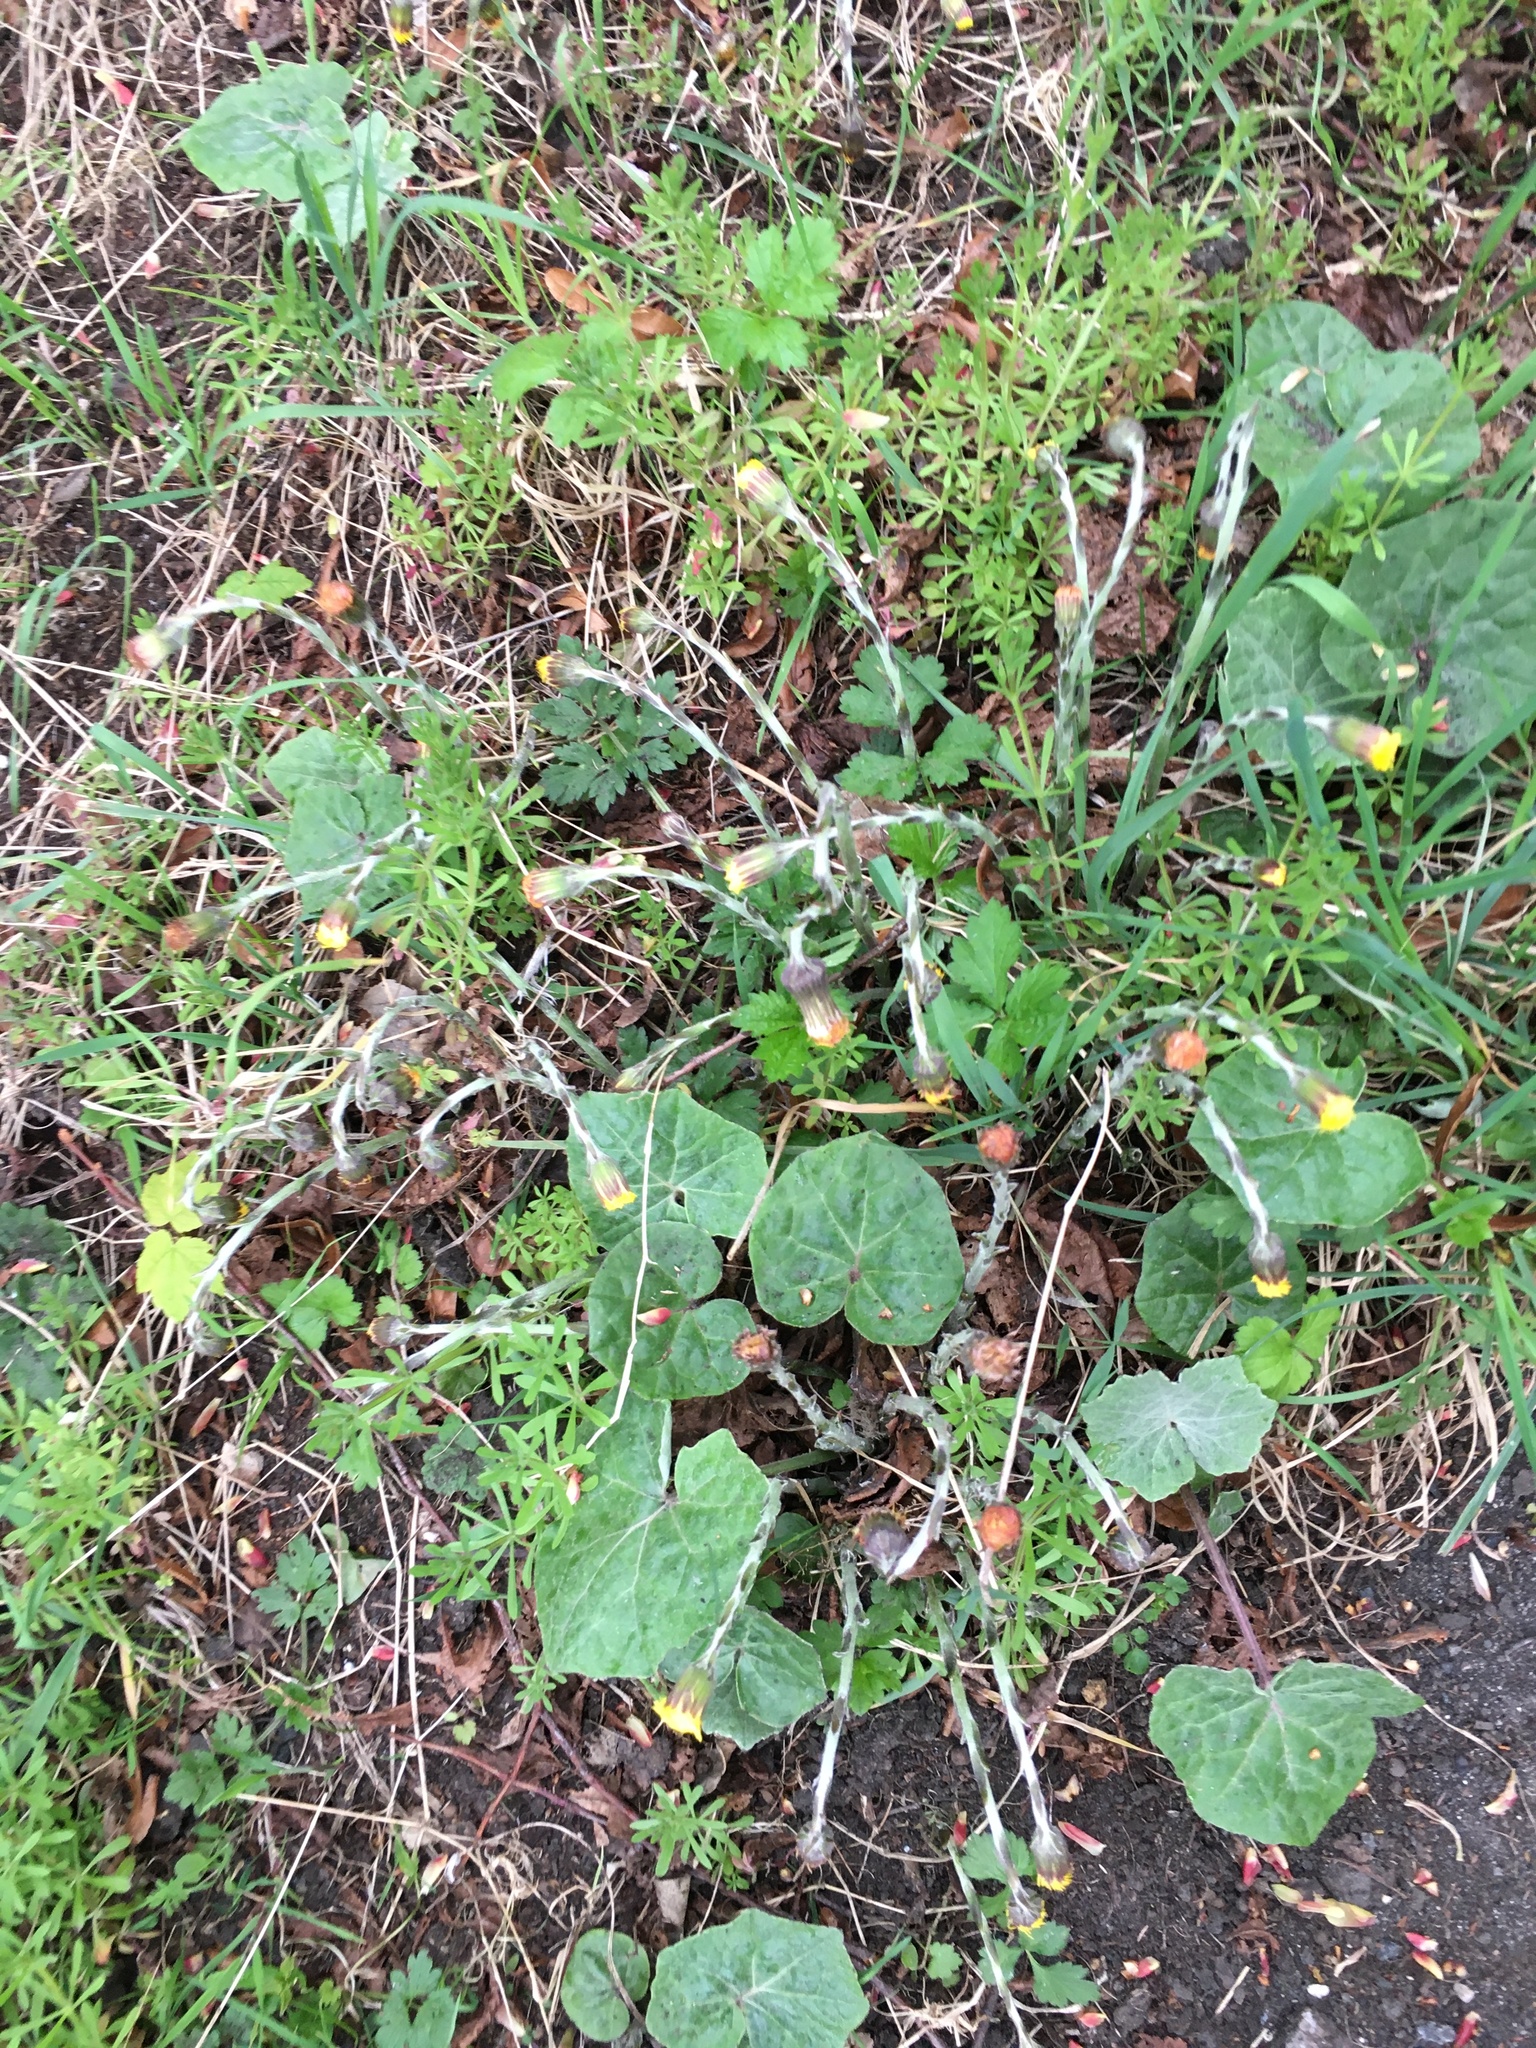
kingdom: Plantae
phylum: Tracheophyta
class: Magnoliopsida
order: Gentianales
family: Rubiaceae
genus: Galium
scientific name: Galium aparine
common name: Cleavers
